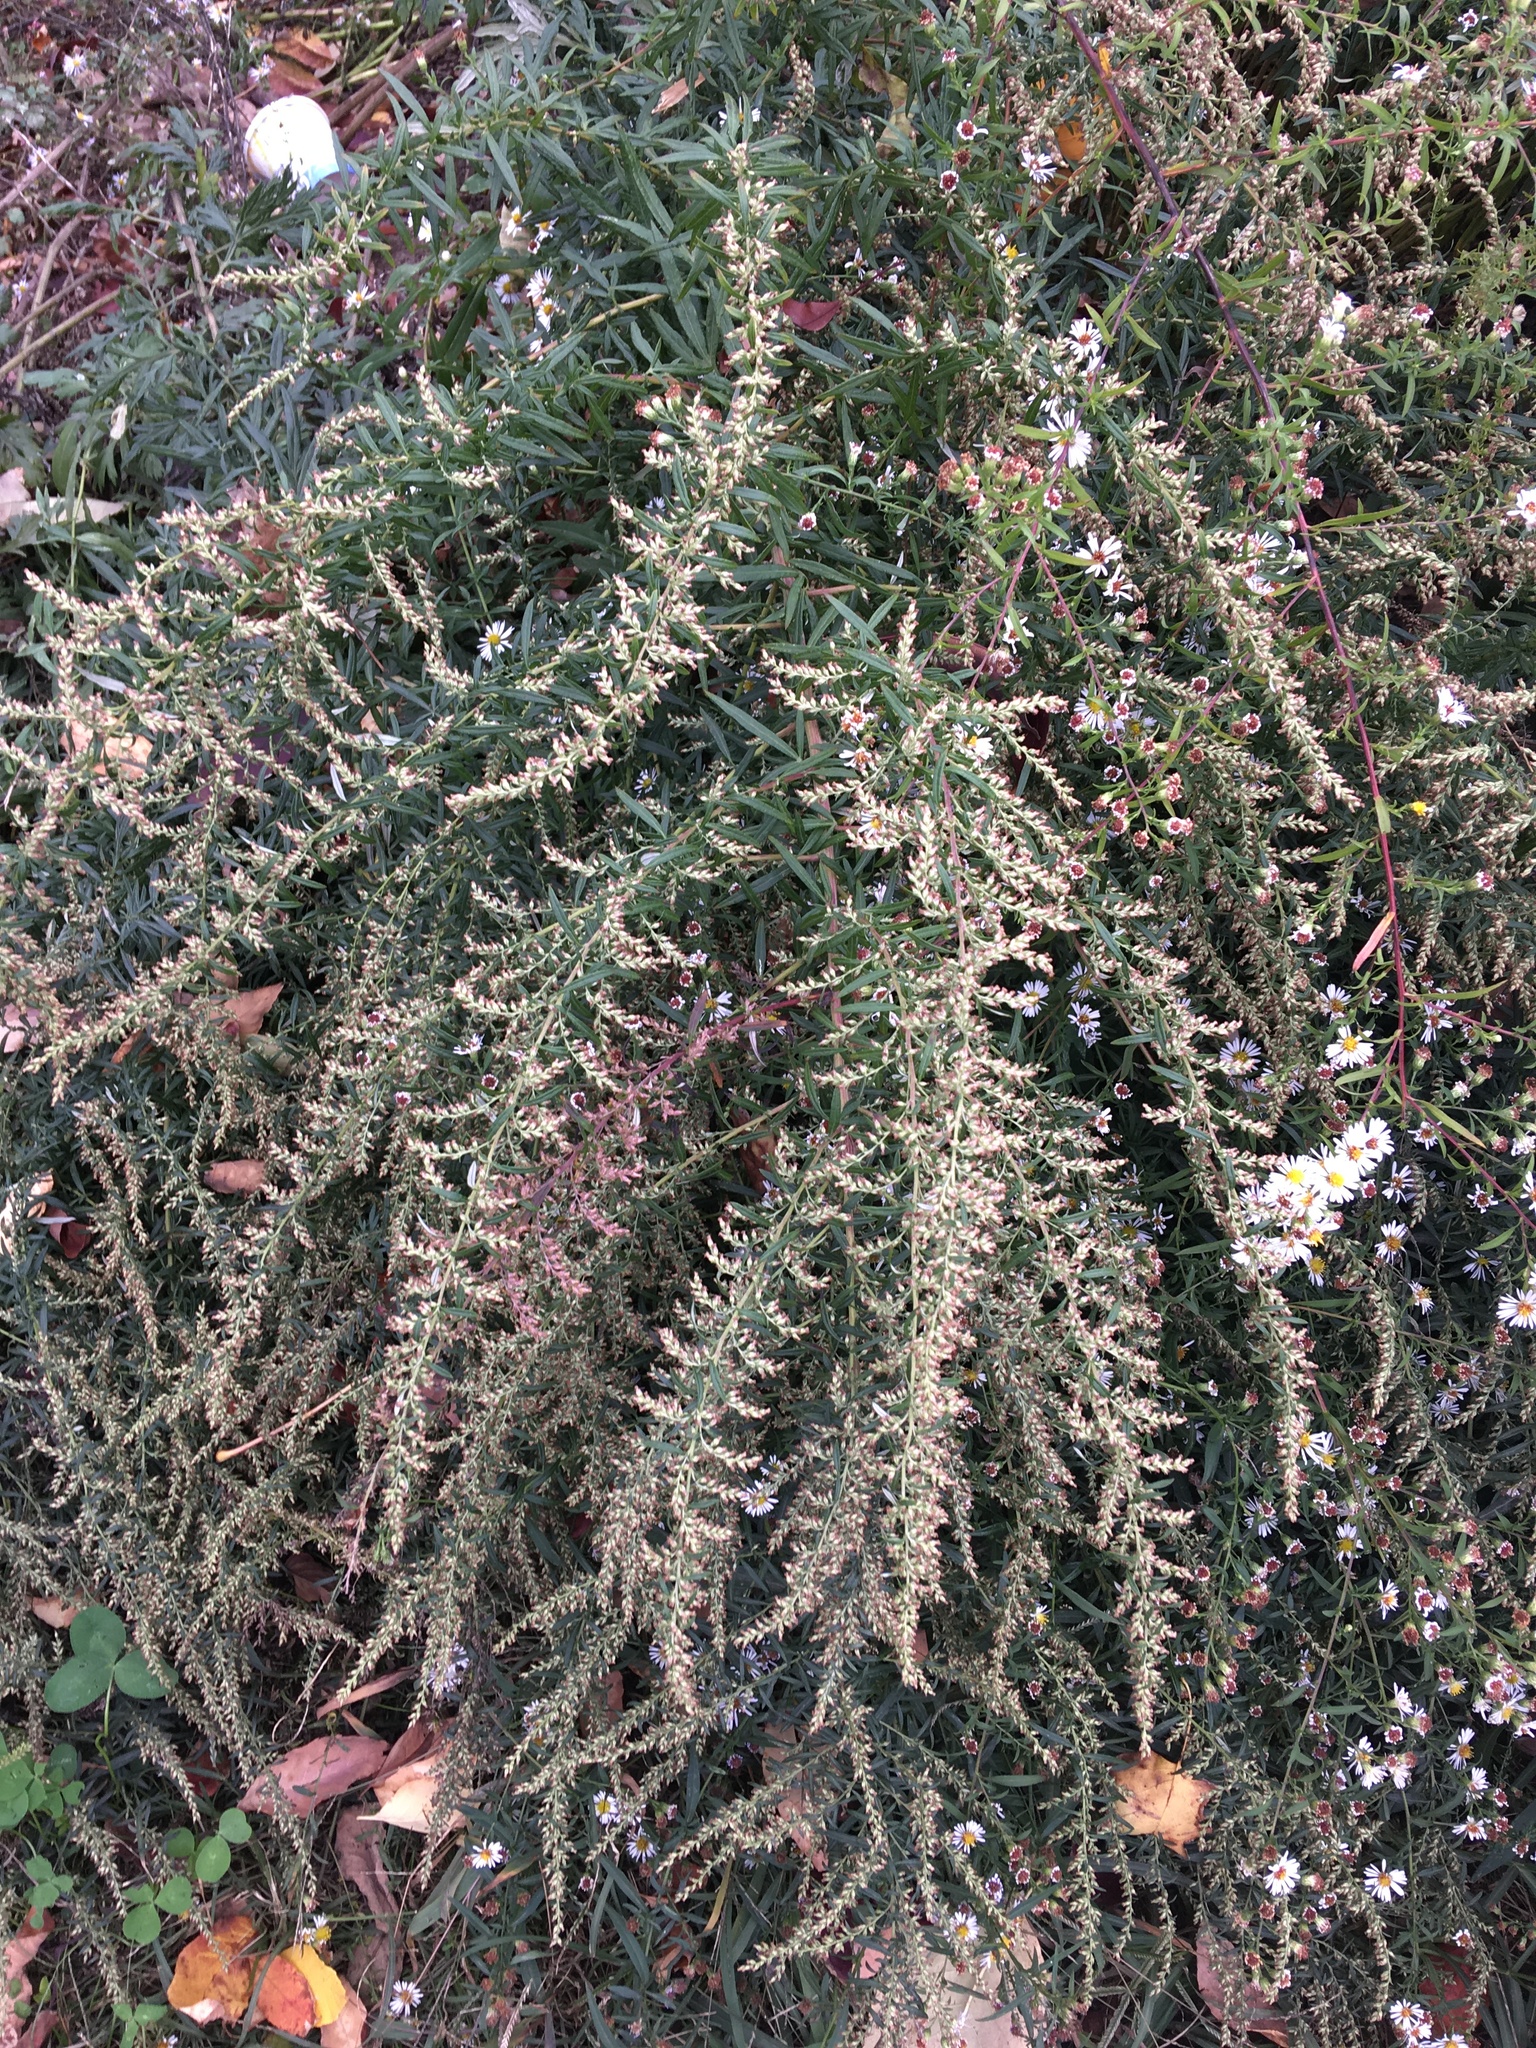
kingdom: Plantae
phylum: Tracheophyta
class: Magnoliopsida
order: Asterales
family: Asteraceae
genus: Artemisia
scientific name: Artemisia vulgaris
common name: Mugwort
